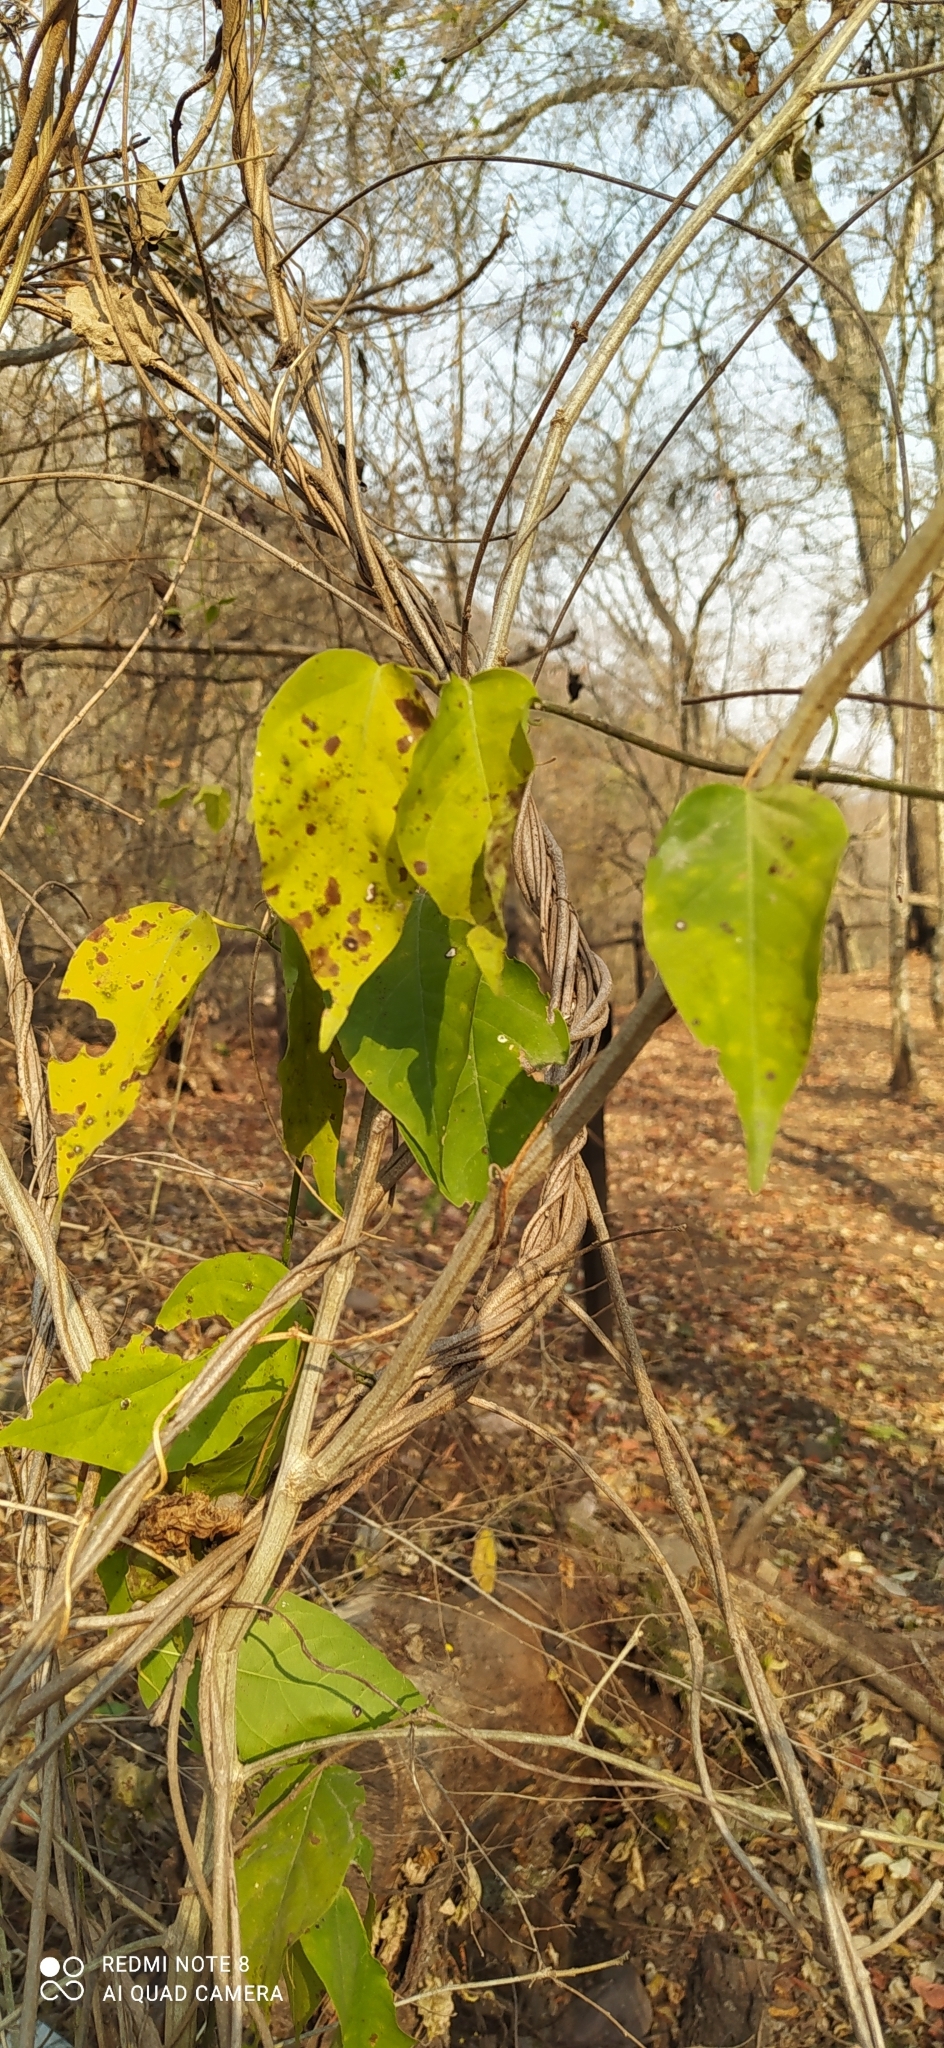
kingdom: Plantae
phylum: Tracheophyta
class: Magnoliopsida
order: Malpighiales
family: Malpighiaceae
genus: Diplopterys
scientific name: Diplopterys lutea
